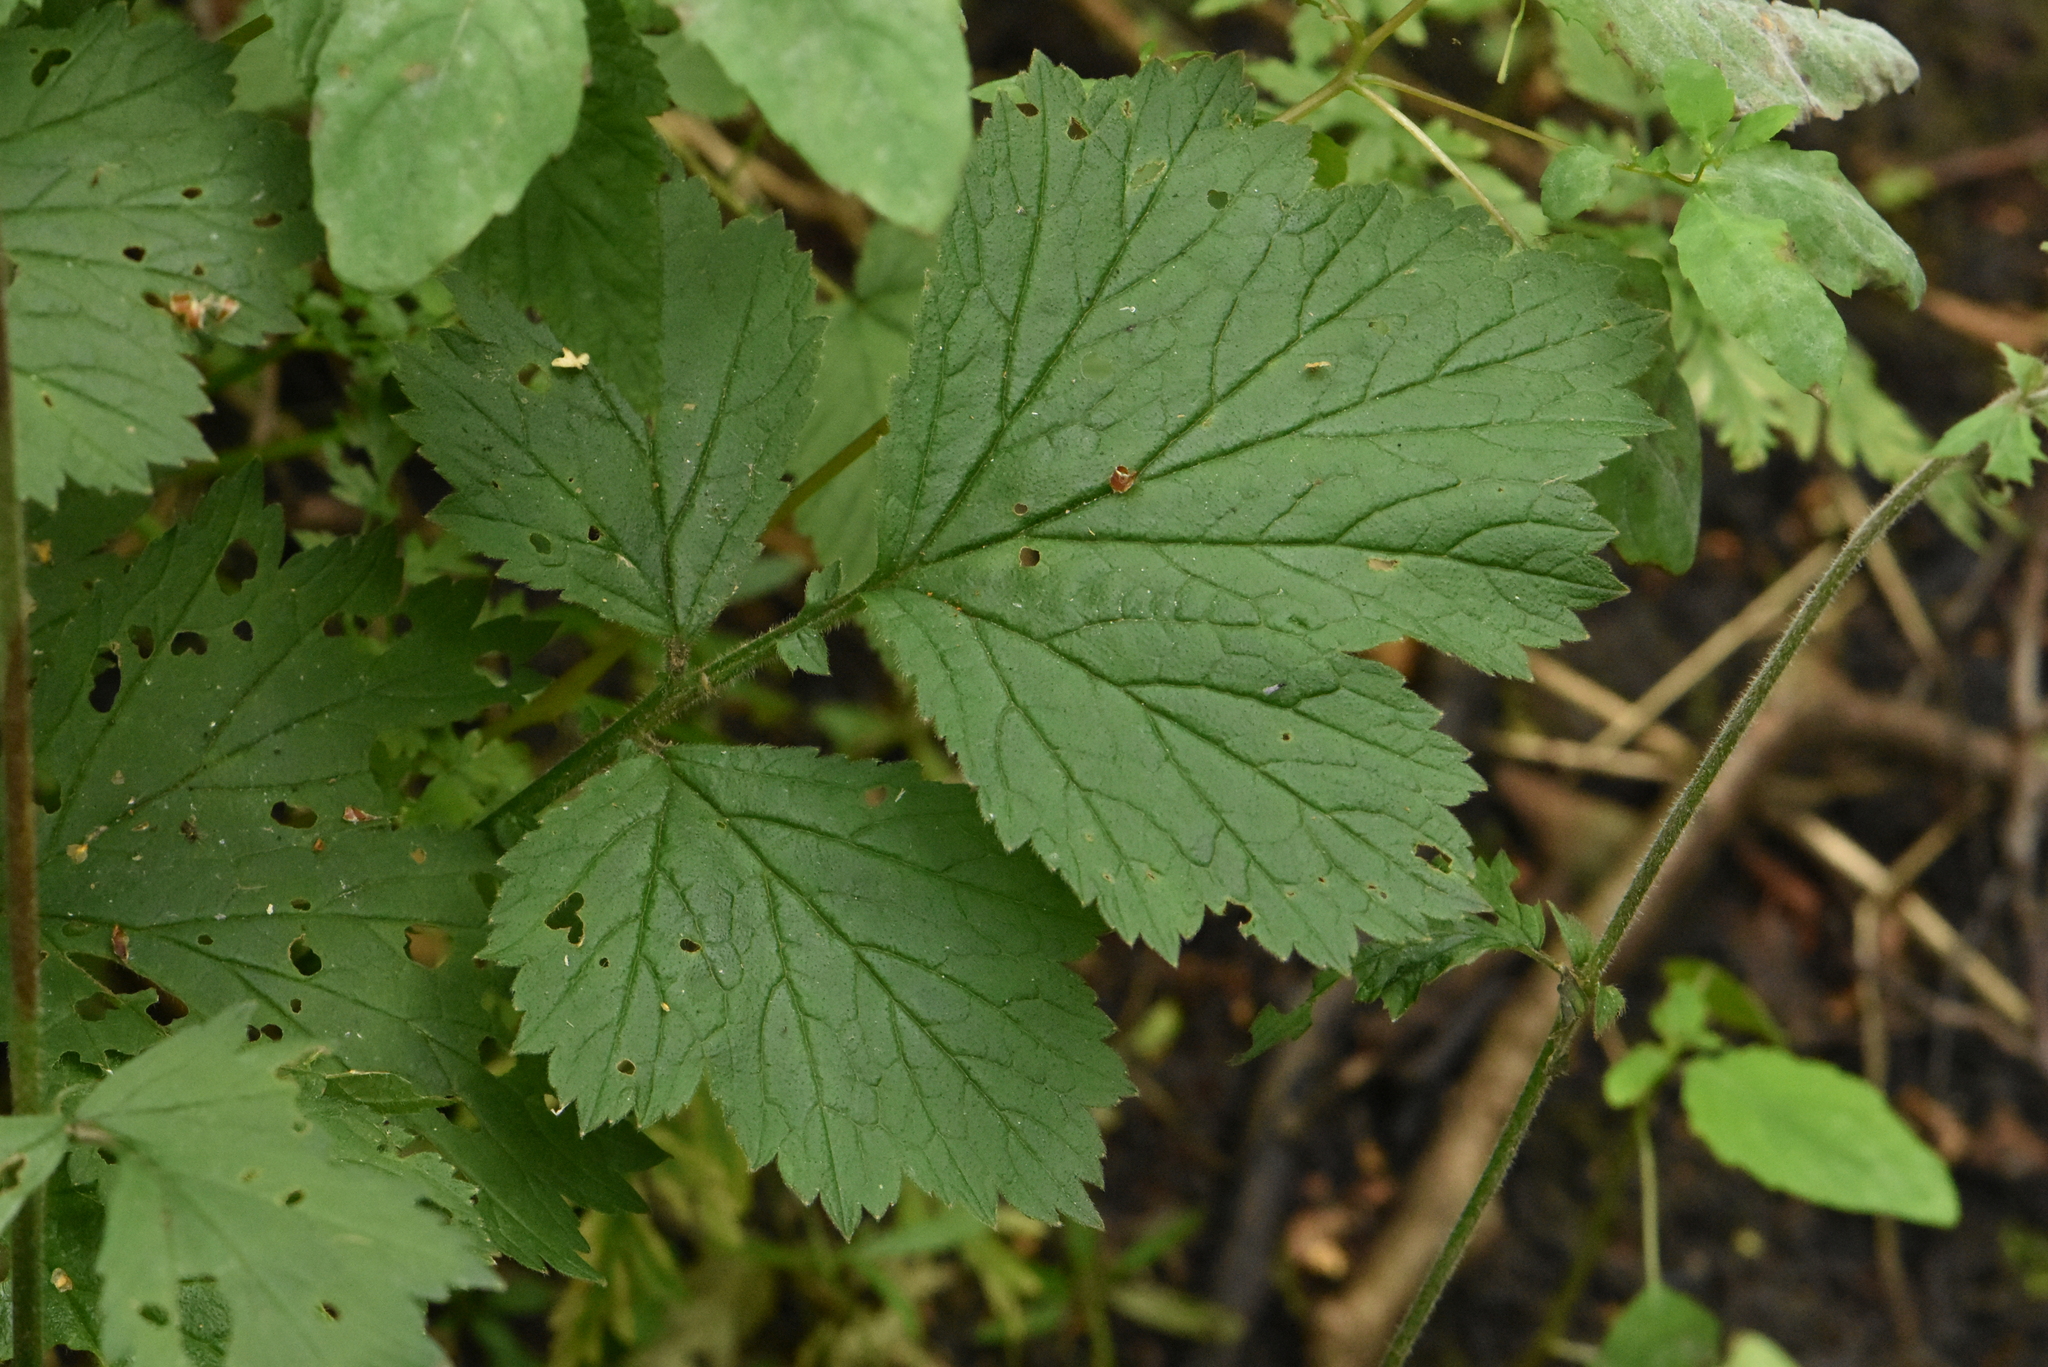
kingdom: Plantae
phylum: Tracheophyta
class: Magnoliopsida
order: Rosales
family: Rosaceae
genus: Geum
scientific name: Geum rivale
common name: Water avens
